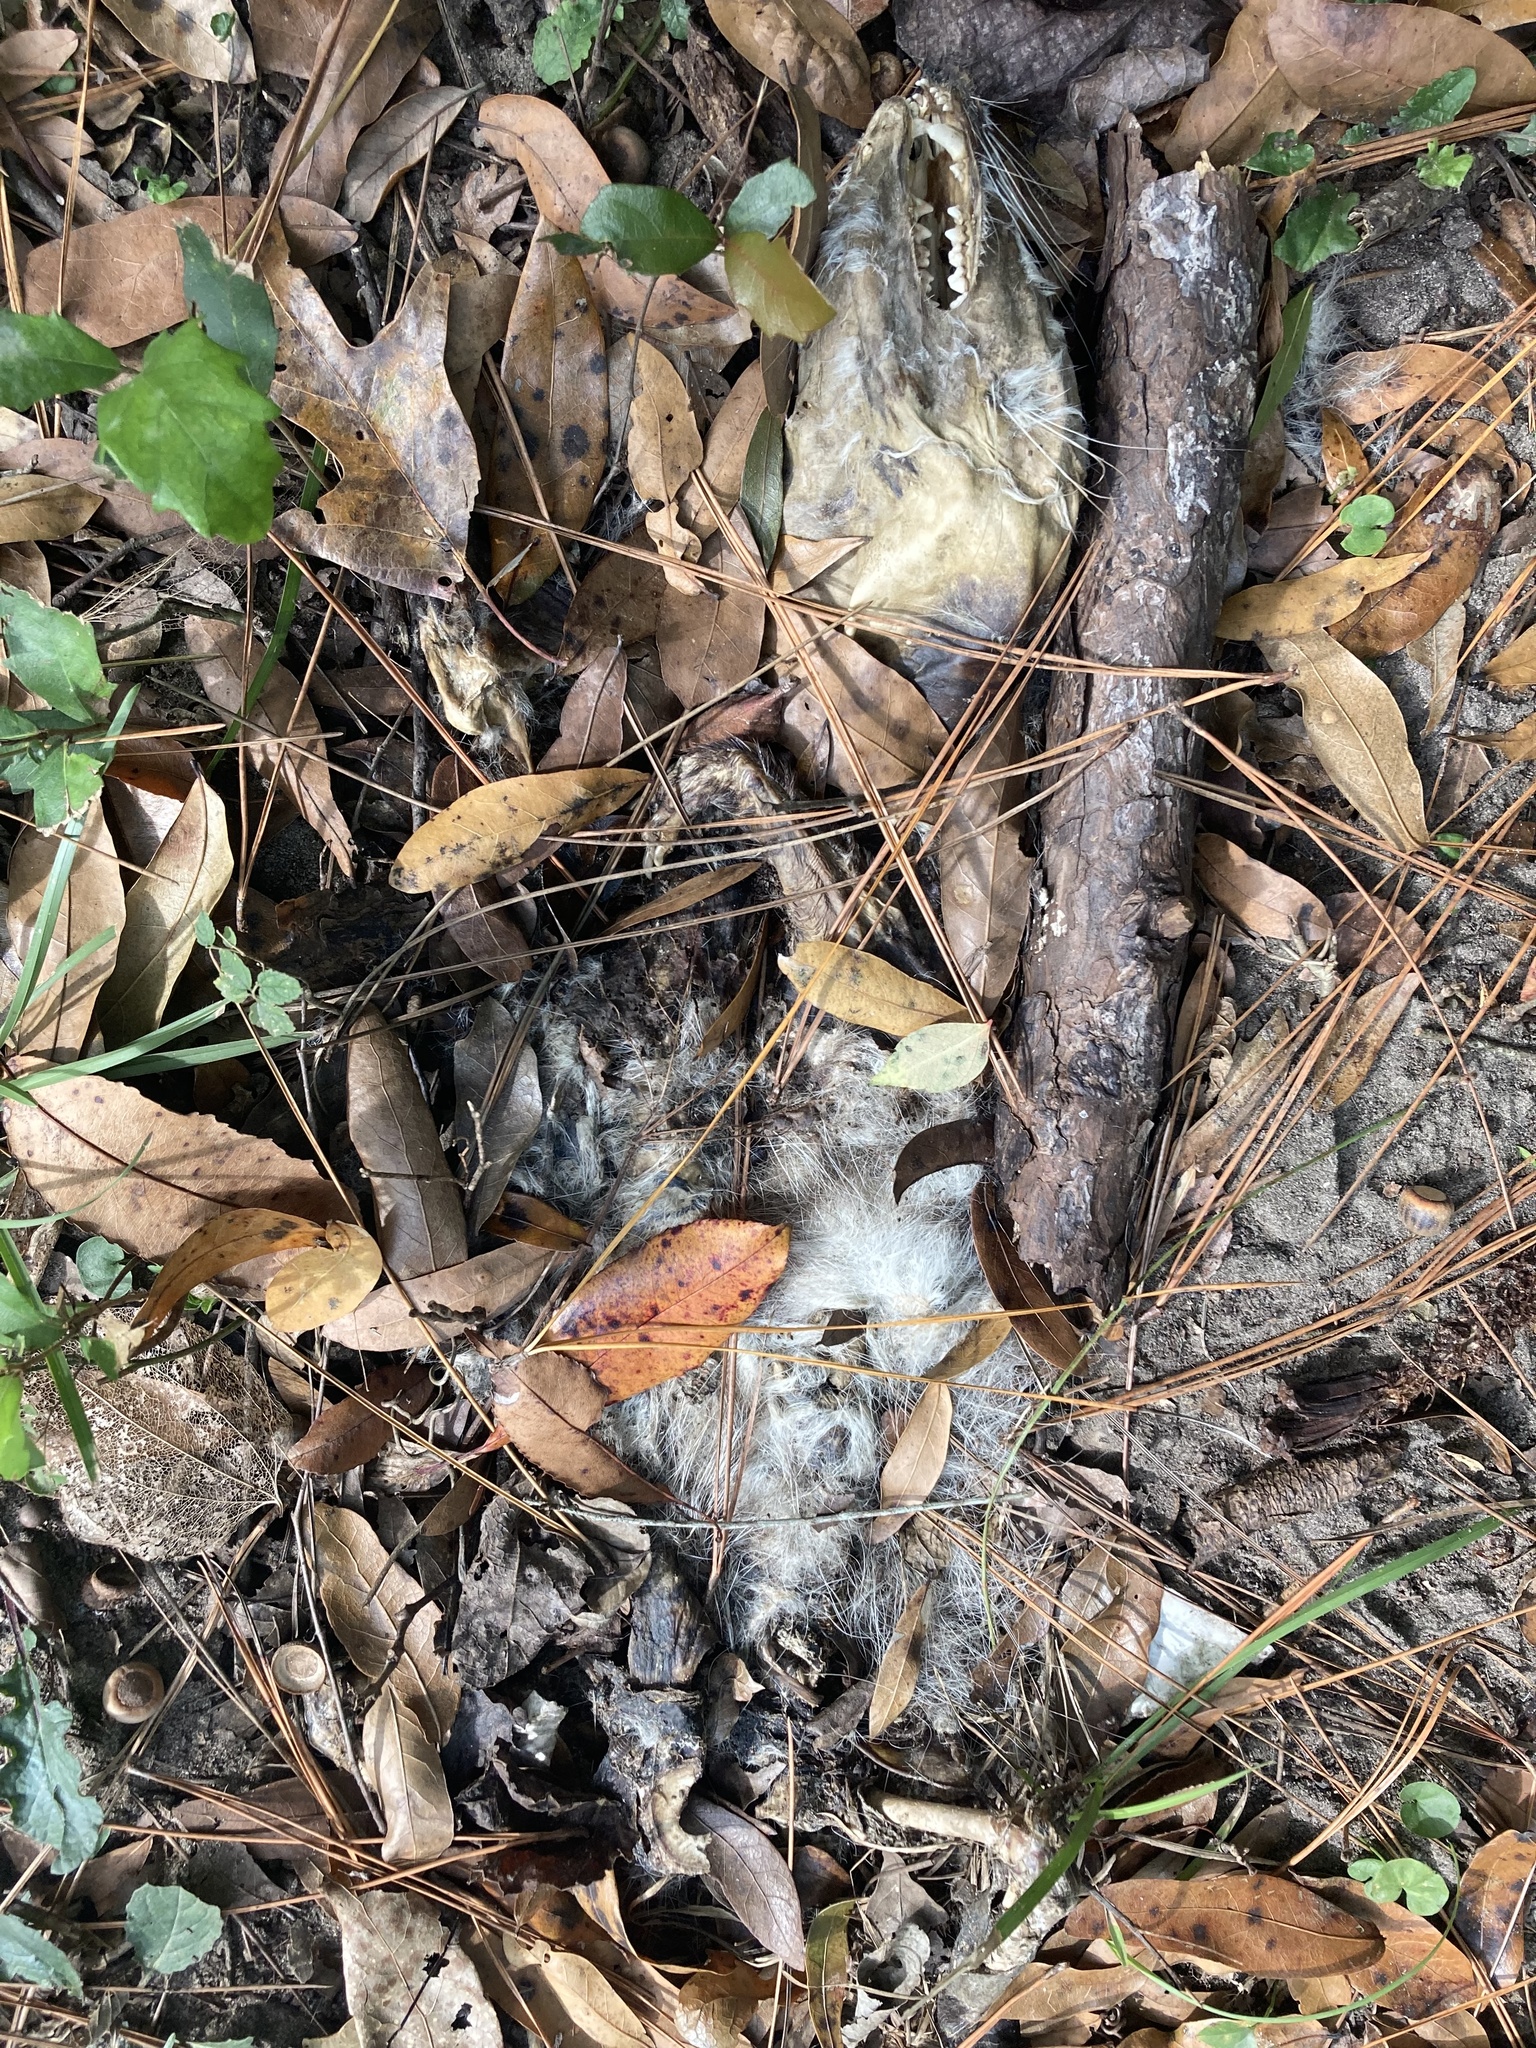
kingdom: Animalia
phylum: Chordata
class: Mammalia
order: Didelphimorphia
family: Didelphidae
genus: Didelphis
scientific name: Didelphis virginiana
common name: Virginia opossum
